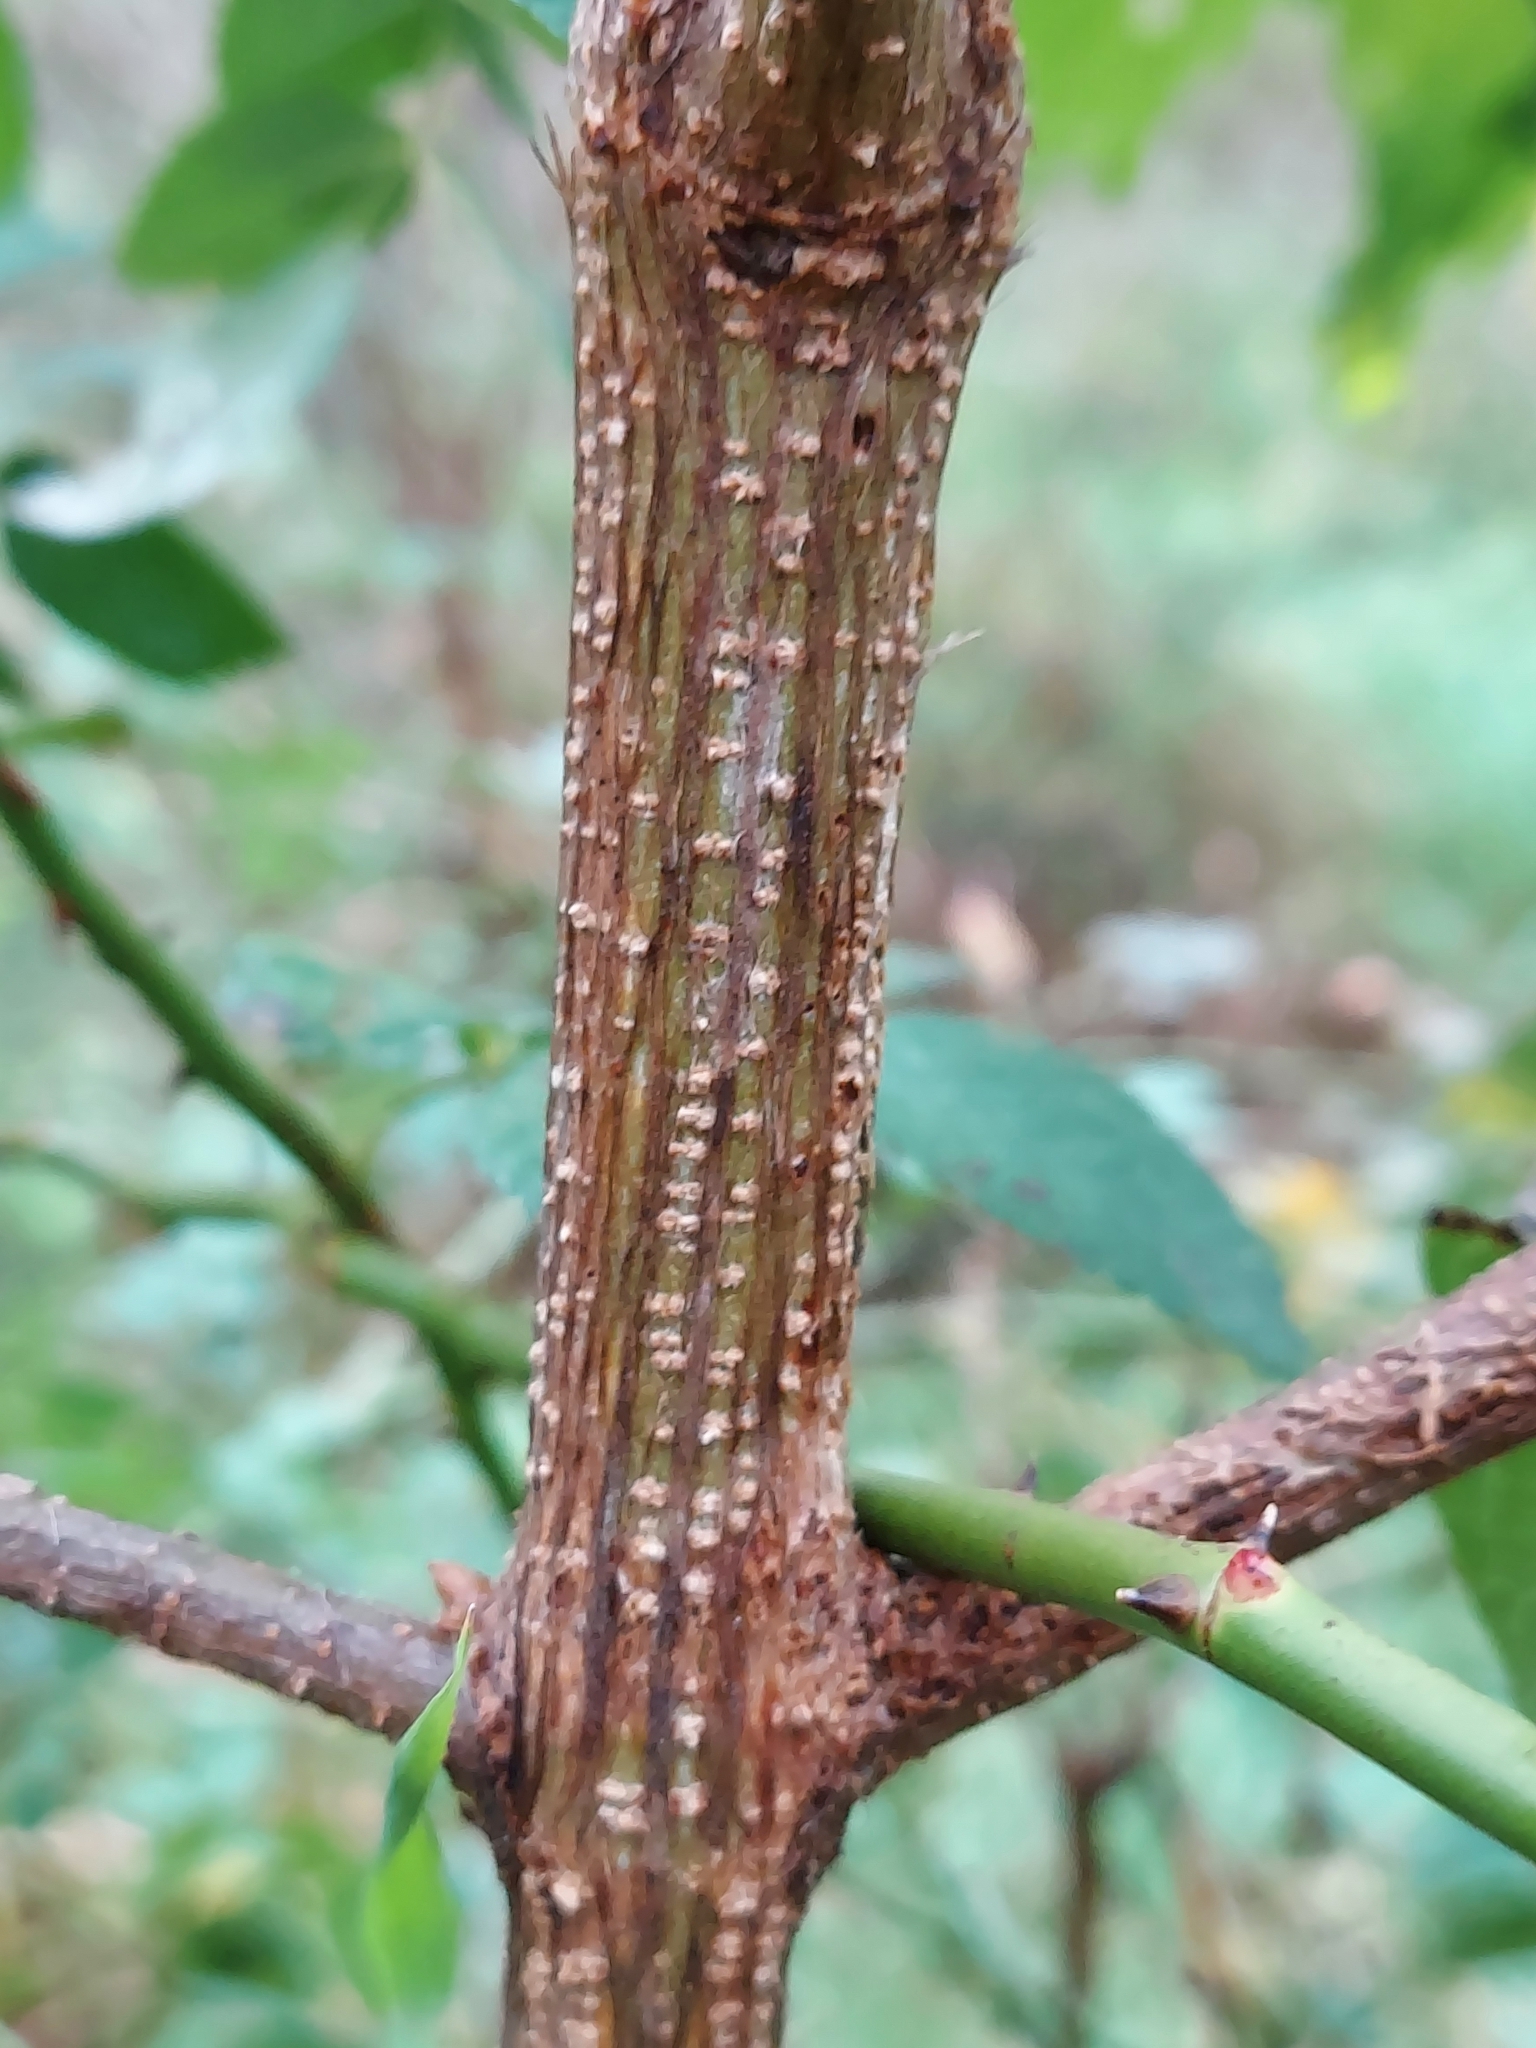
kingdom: Plantae
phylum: Tracheophyta
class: Magnoliopsida
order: Dipsacales
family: Caprifoliaceae
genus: Lonicera
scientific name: Lonicera maackii
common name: Amur honeysuckle
